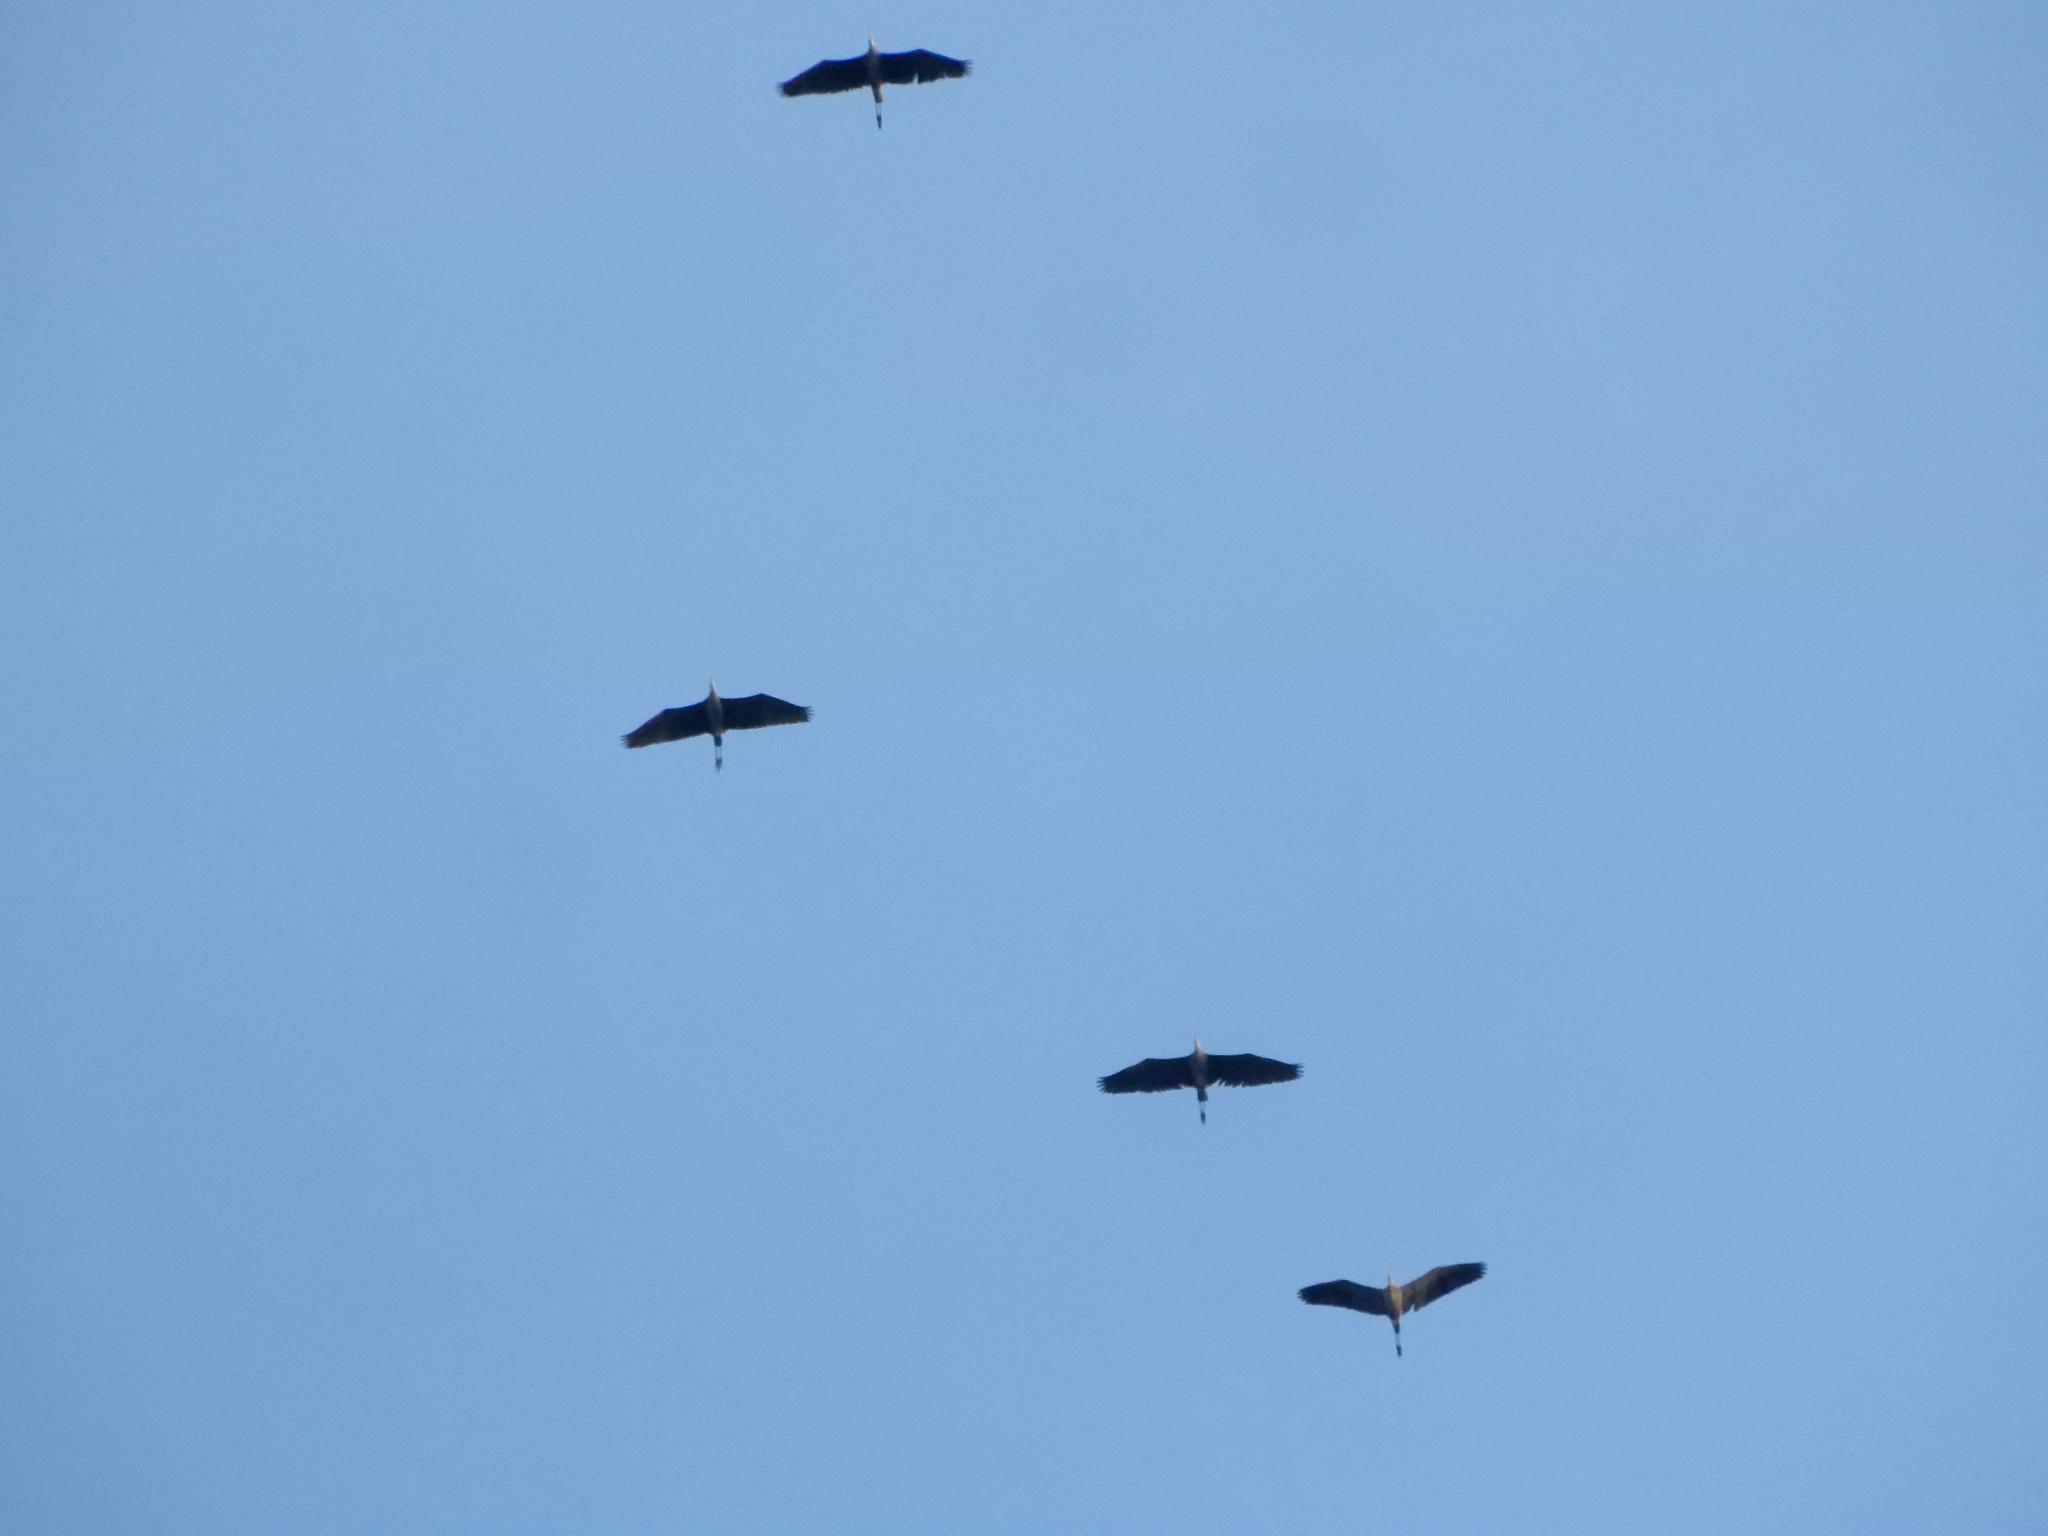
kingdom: Animalia
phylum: Chordata
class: Aves
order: Pelecaniformes
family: Ardeidae
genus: Ardea
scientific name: Ardea herodias
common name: Great blue heron
